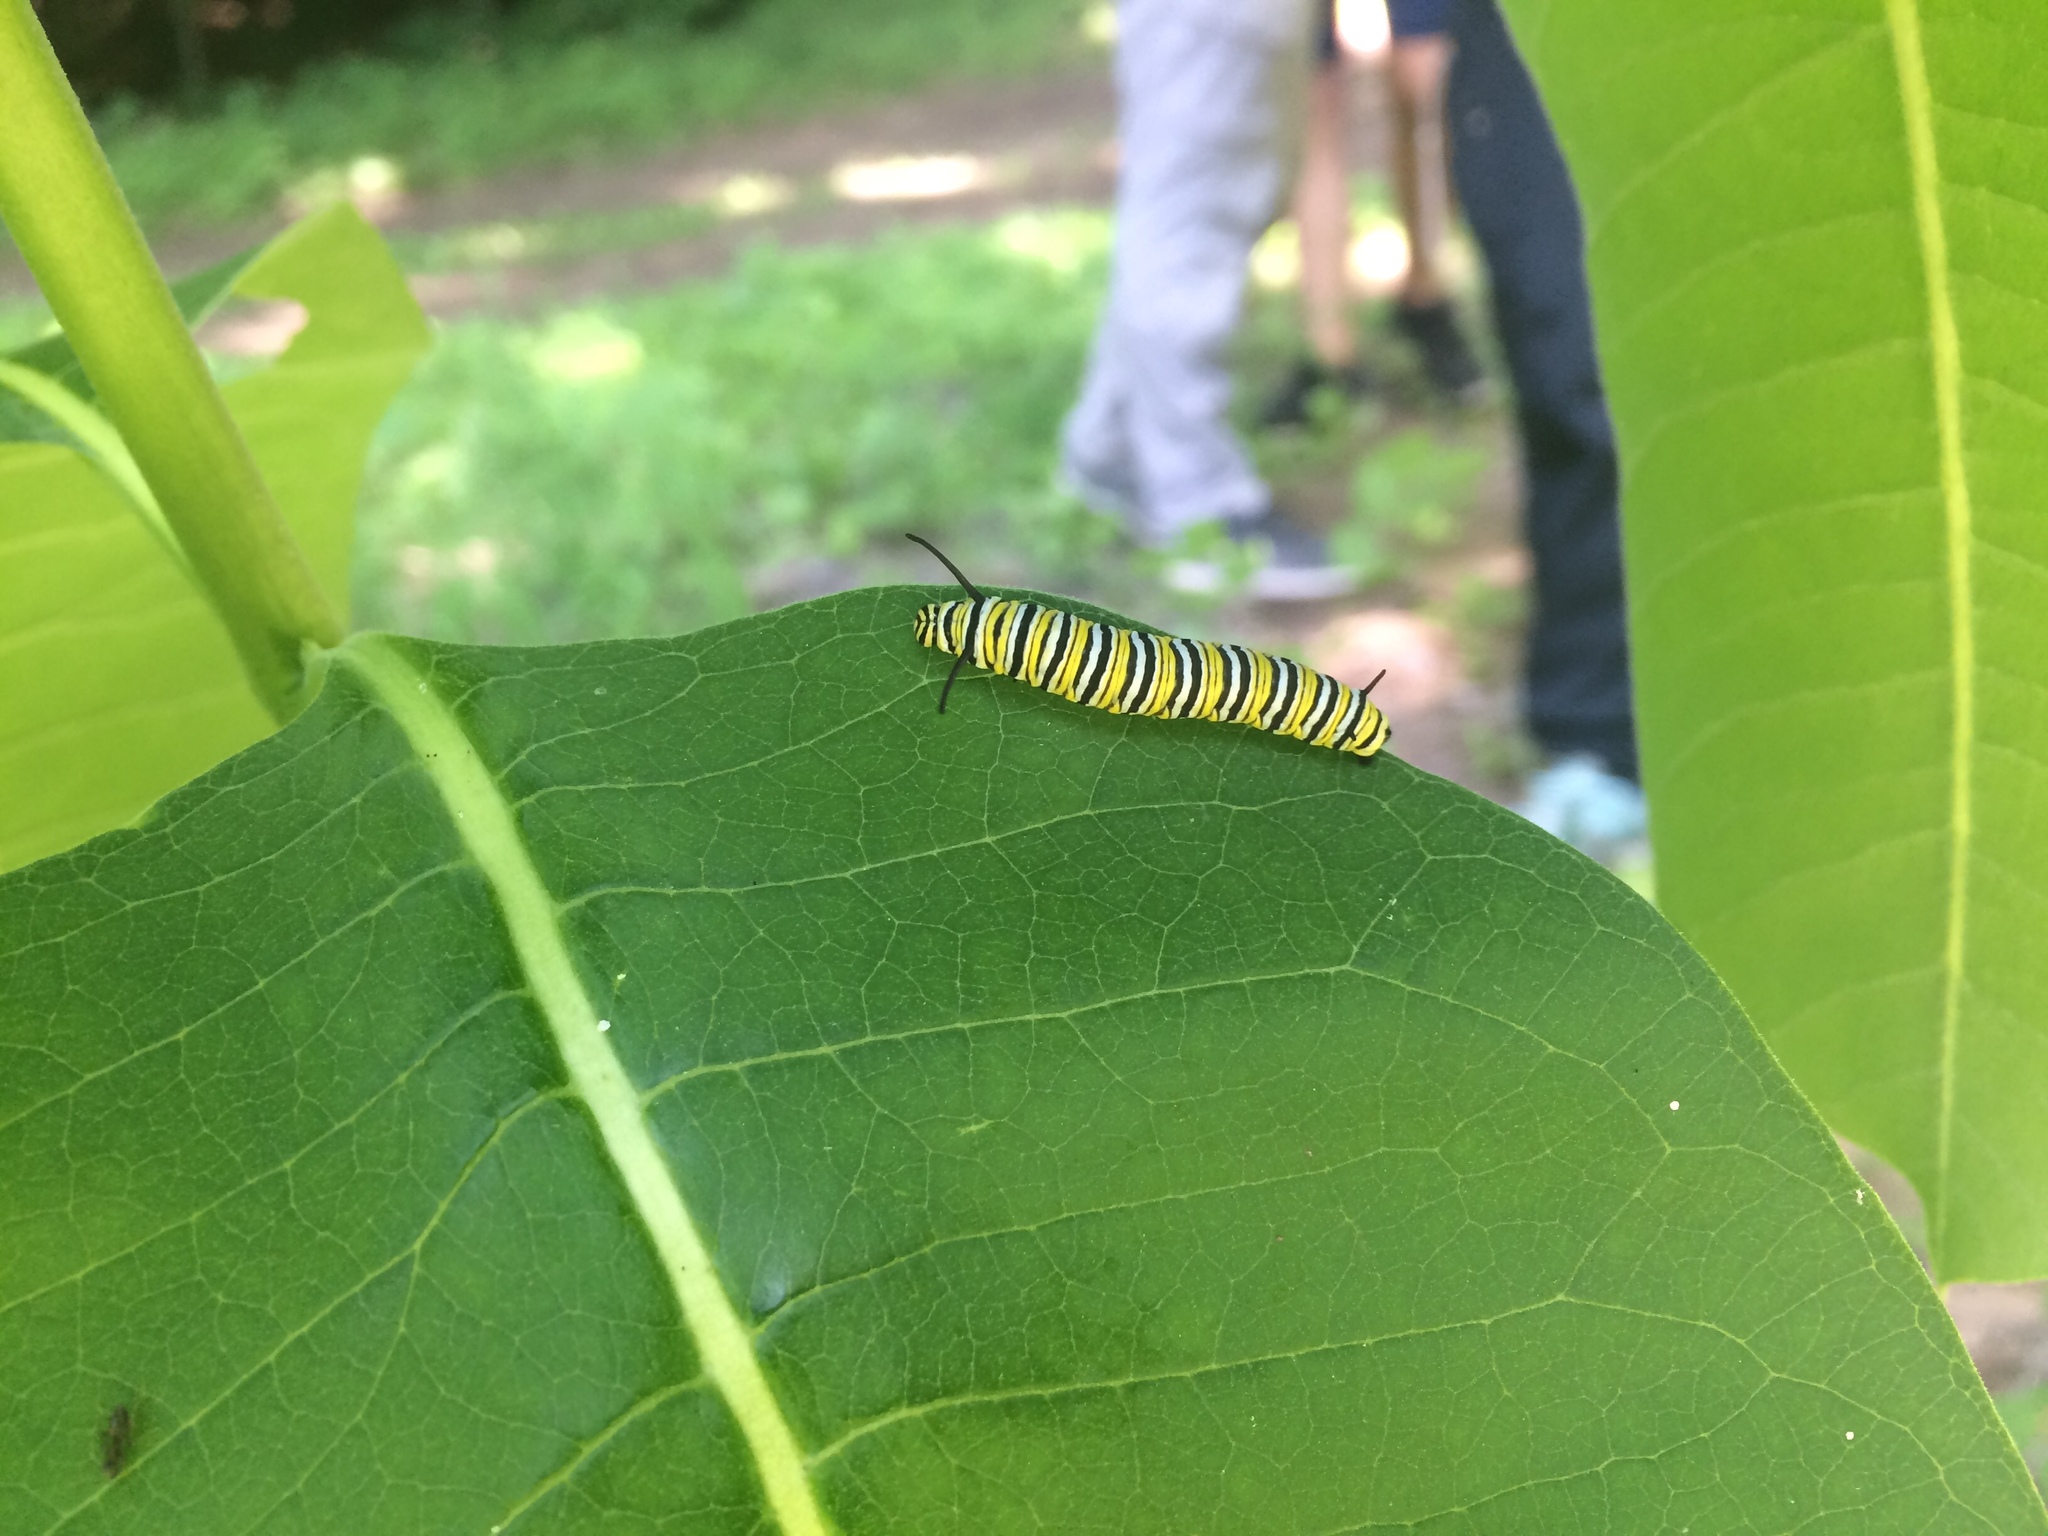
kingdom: Animalia
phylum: Arthropoda
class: Insecta
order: Lepidoptera
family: Nymphalidae
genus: Danaus
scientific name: Danaus plexippus
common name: Monarch
